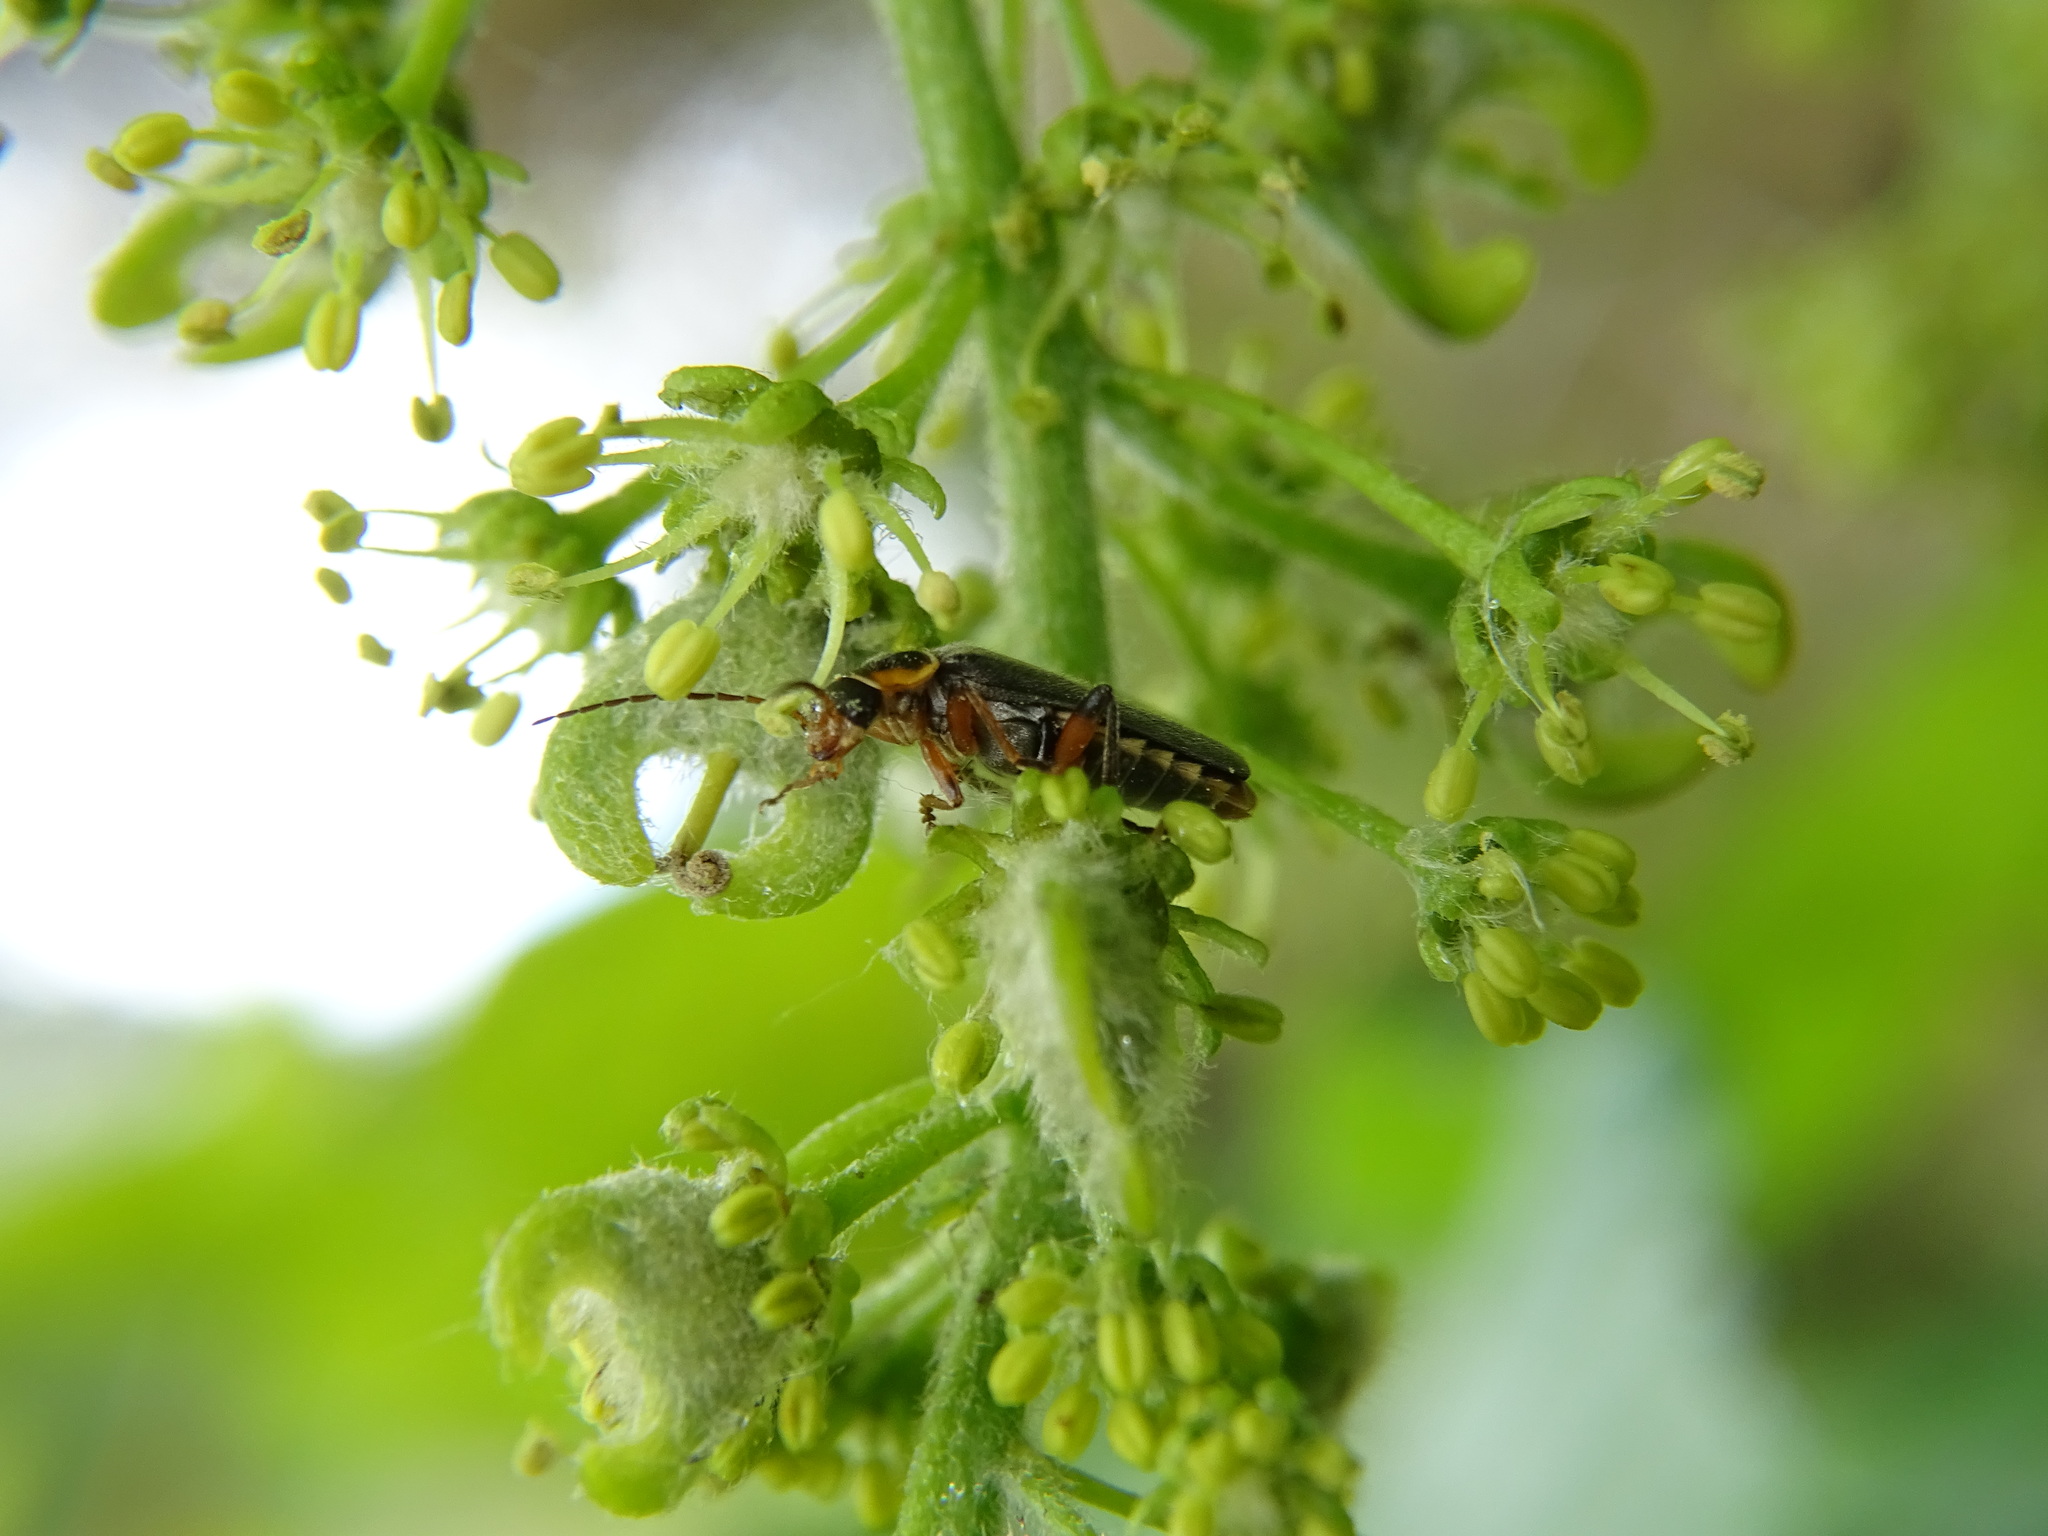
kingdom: Animalia
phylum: Arthropoda
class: Insecta
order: Coleoptera
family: Cantharidae
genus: Cantharis
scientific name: Cantharis nigricans
